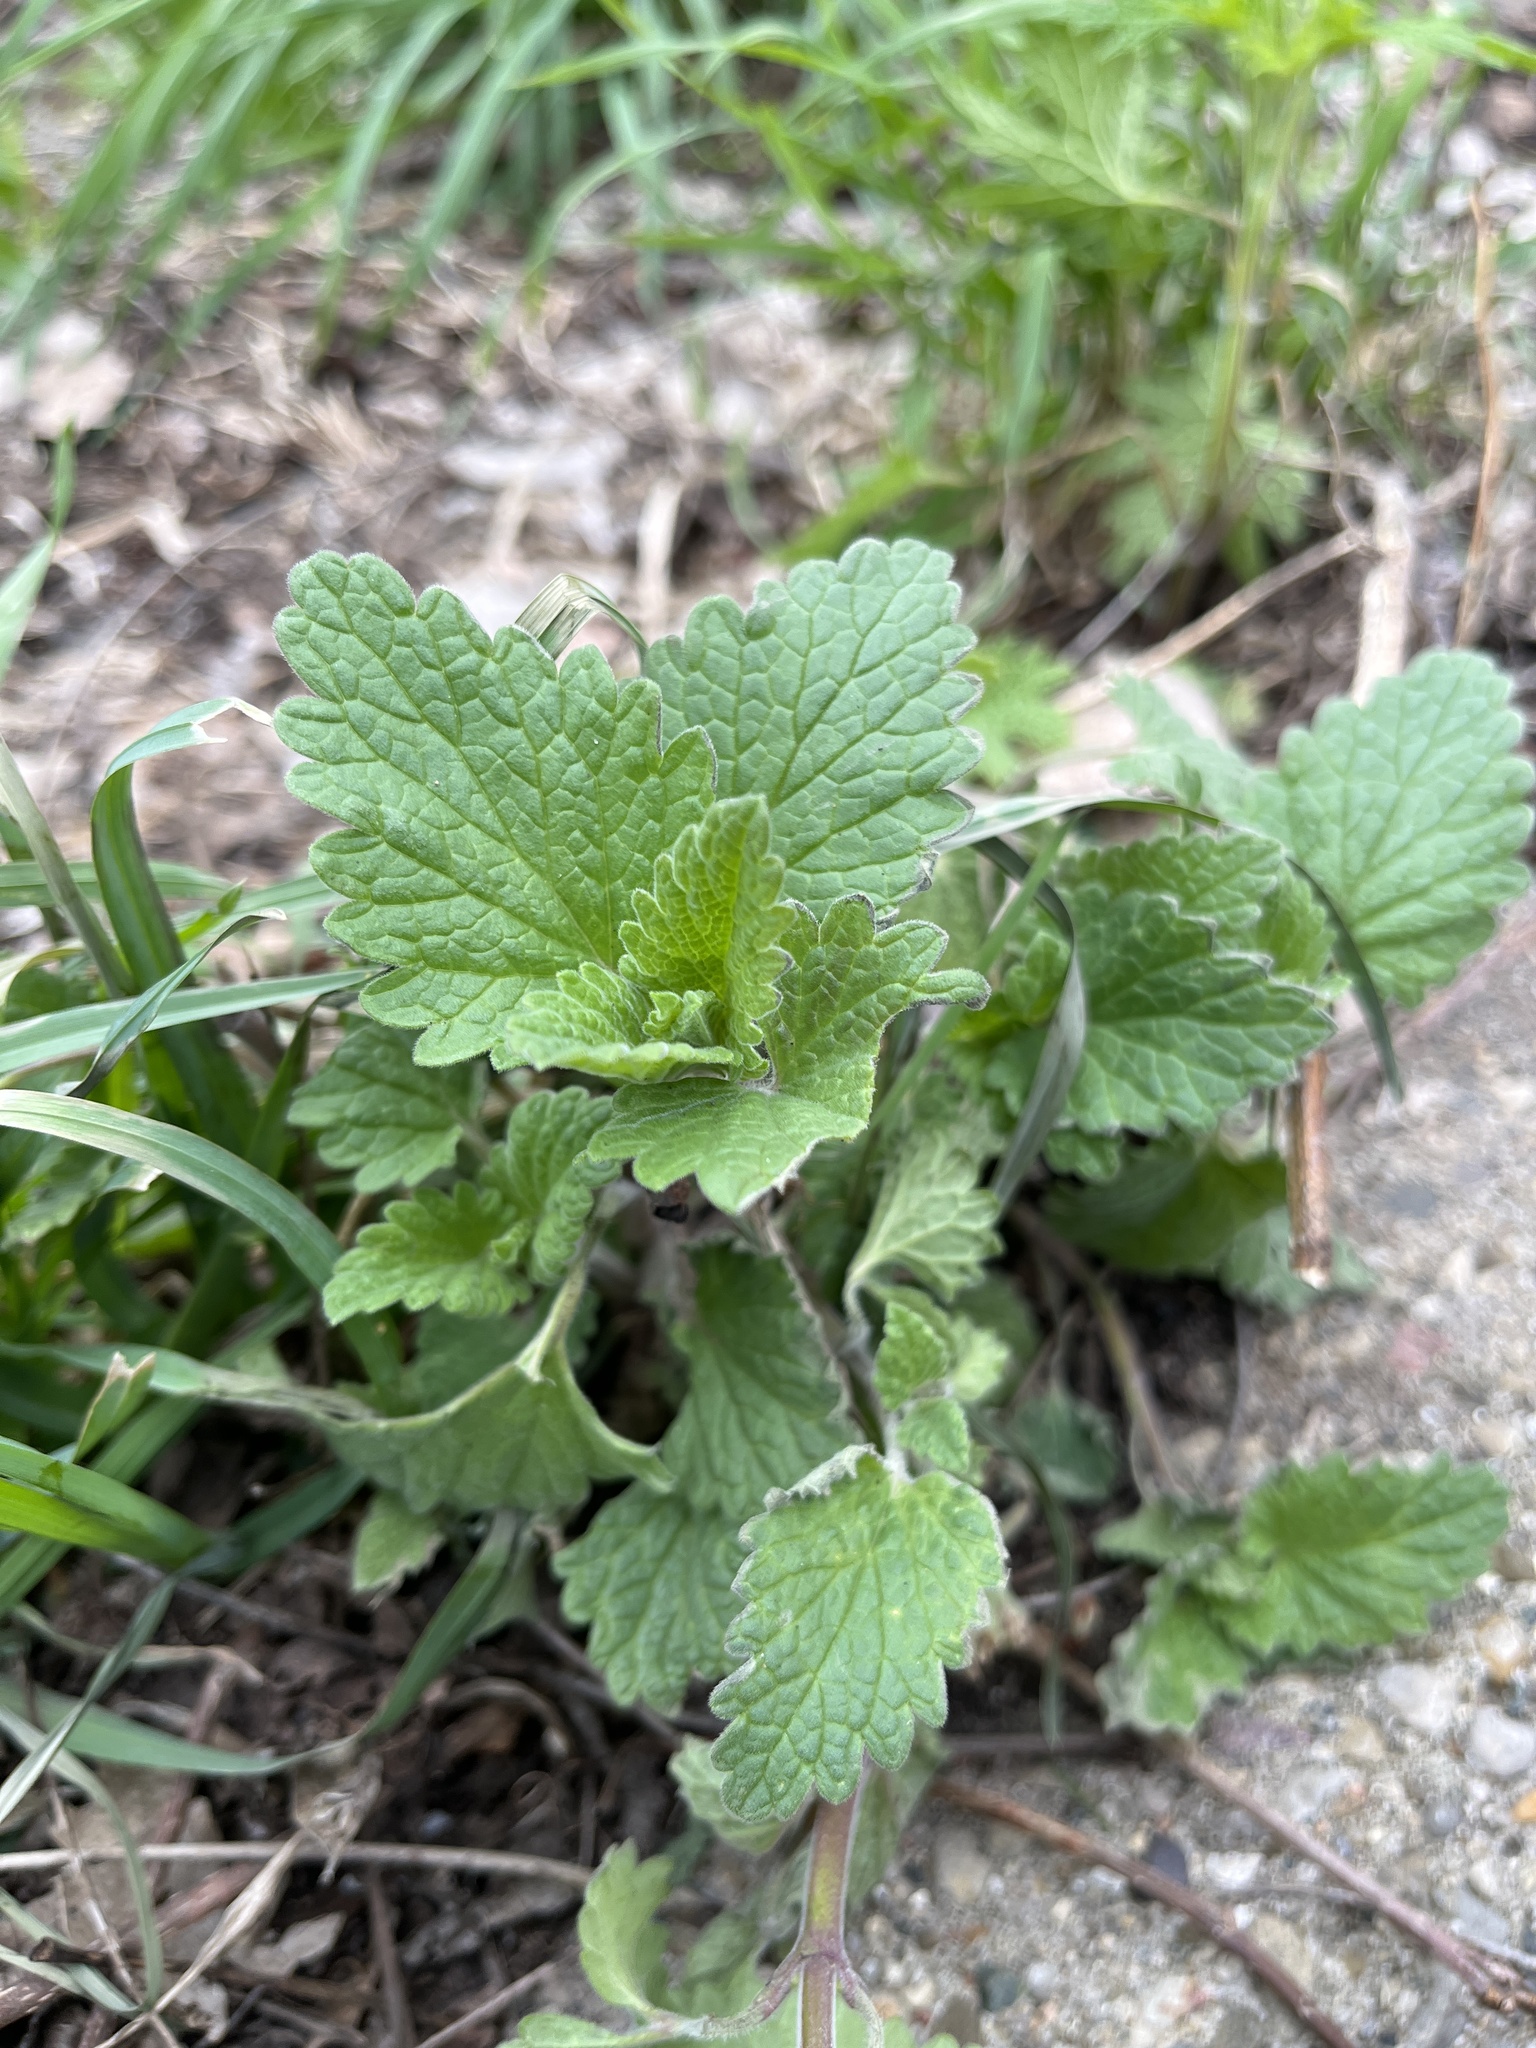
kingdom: Plantae
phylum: Tracheophyta
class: Magnoliopsida
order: Lamiales
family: Lamiaceae
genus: Nepeta
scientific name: Nepeta cataria
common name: Catnip
